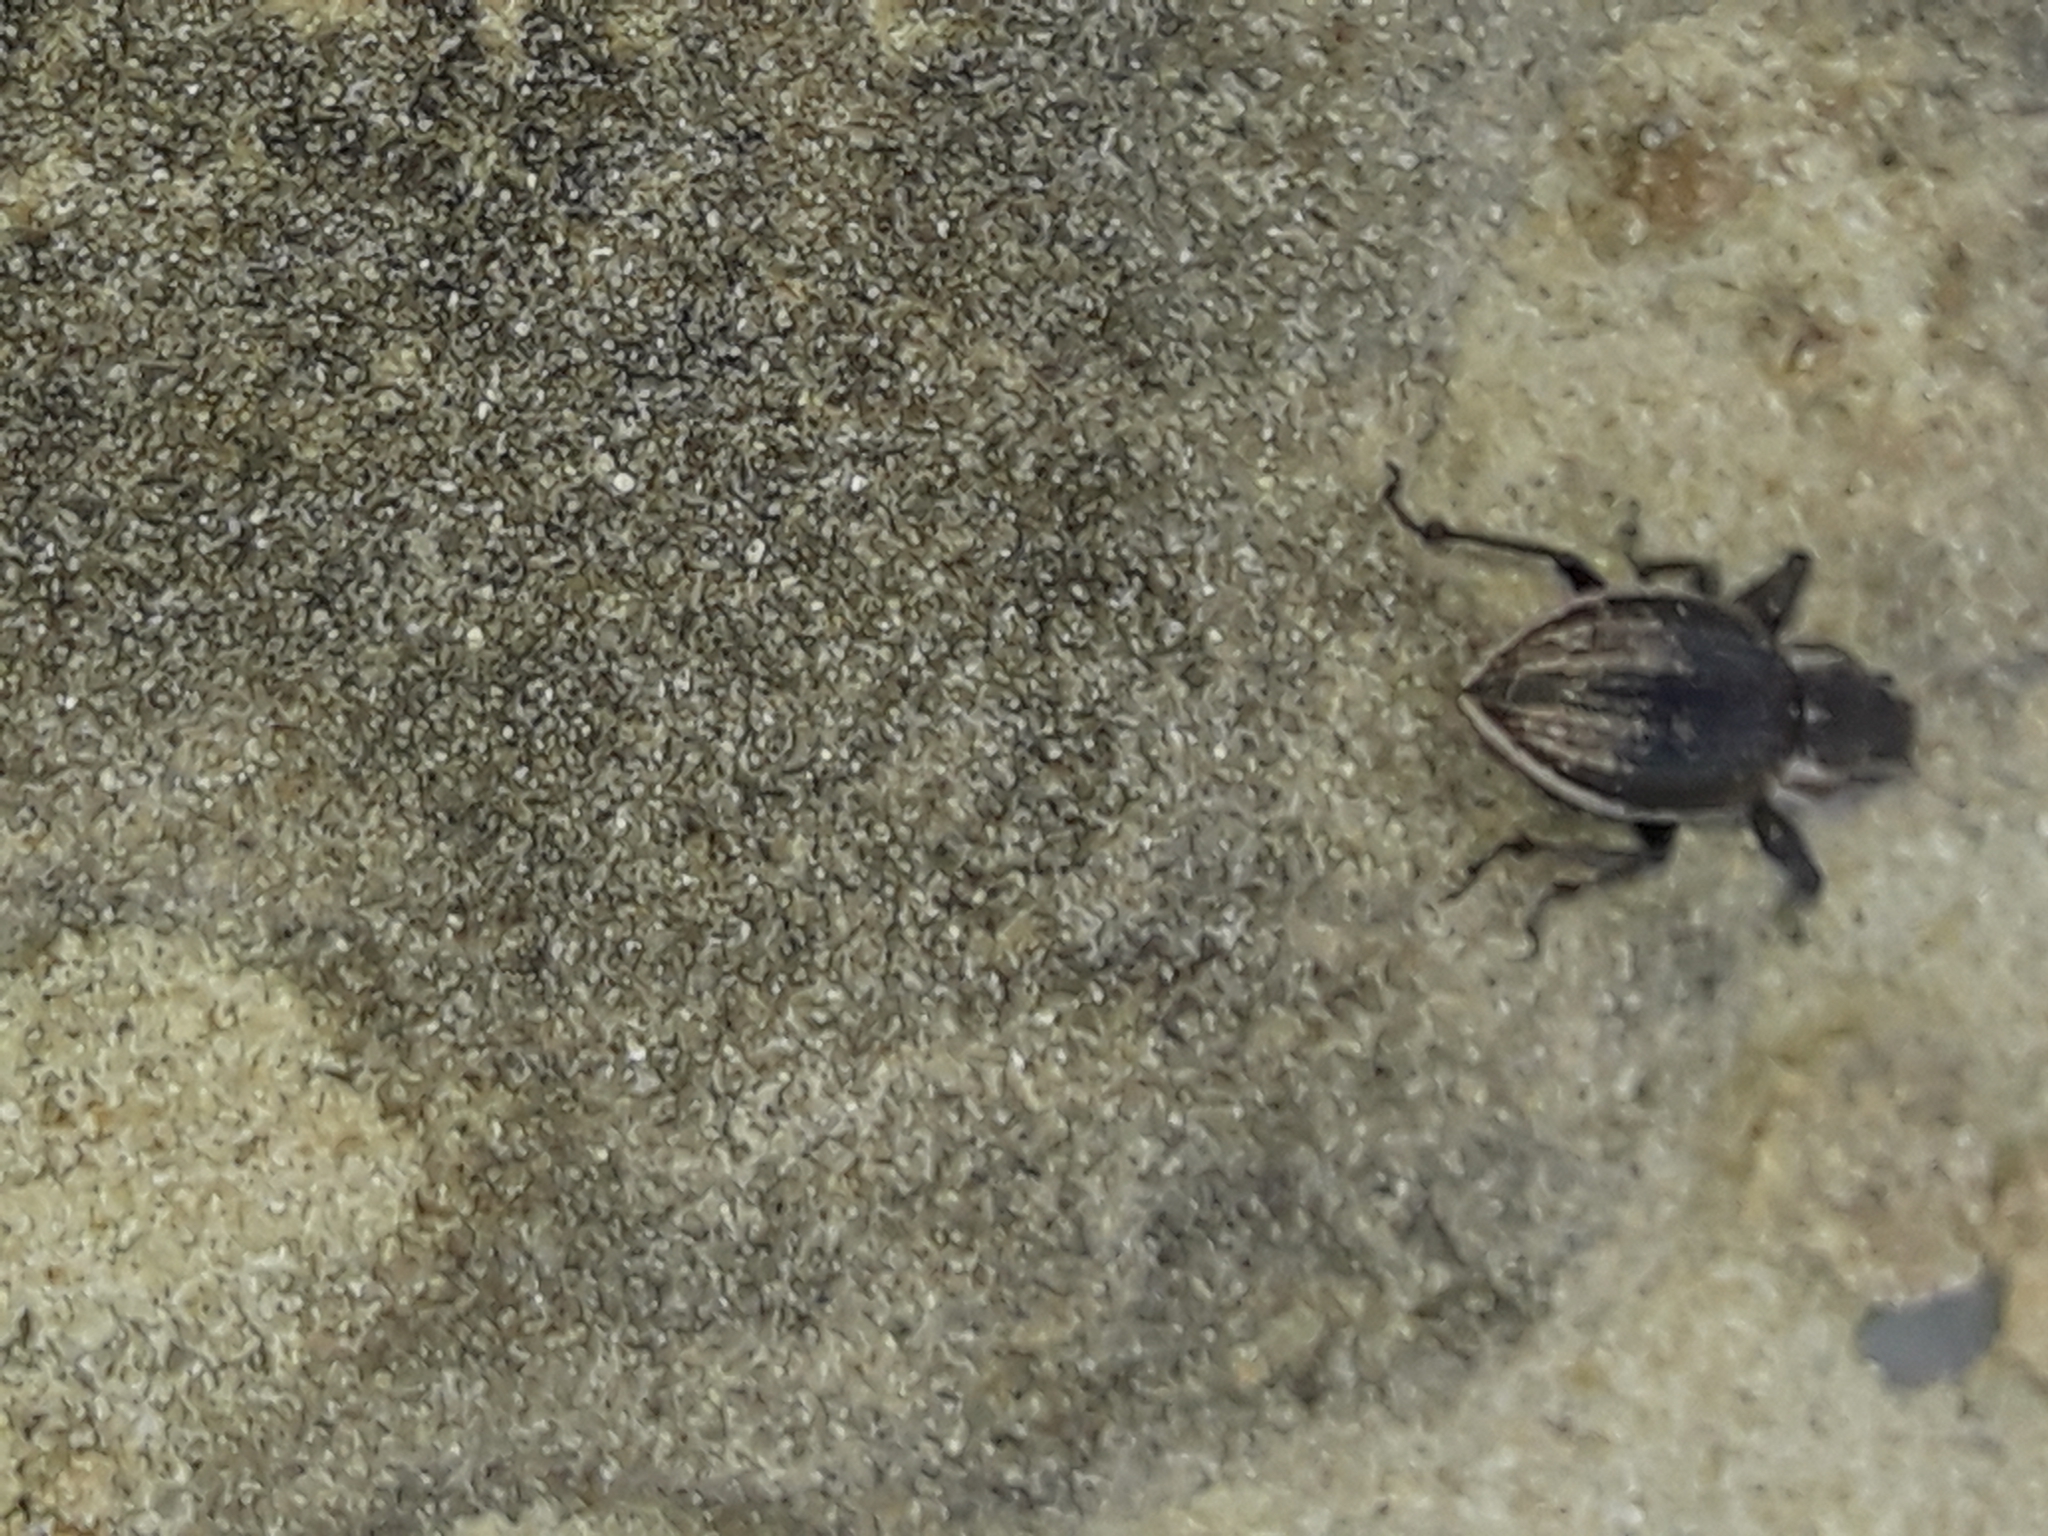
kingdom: Animalia
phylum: Arthropoda
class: Insecta
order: Coleoptera
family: Curculionidae
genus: Naupactus
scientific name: Naupactus leucoloma
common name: Whitefringed beetle
